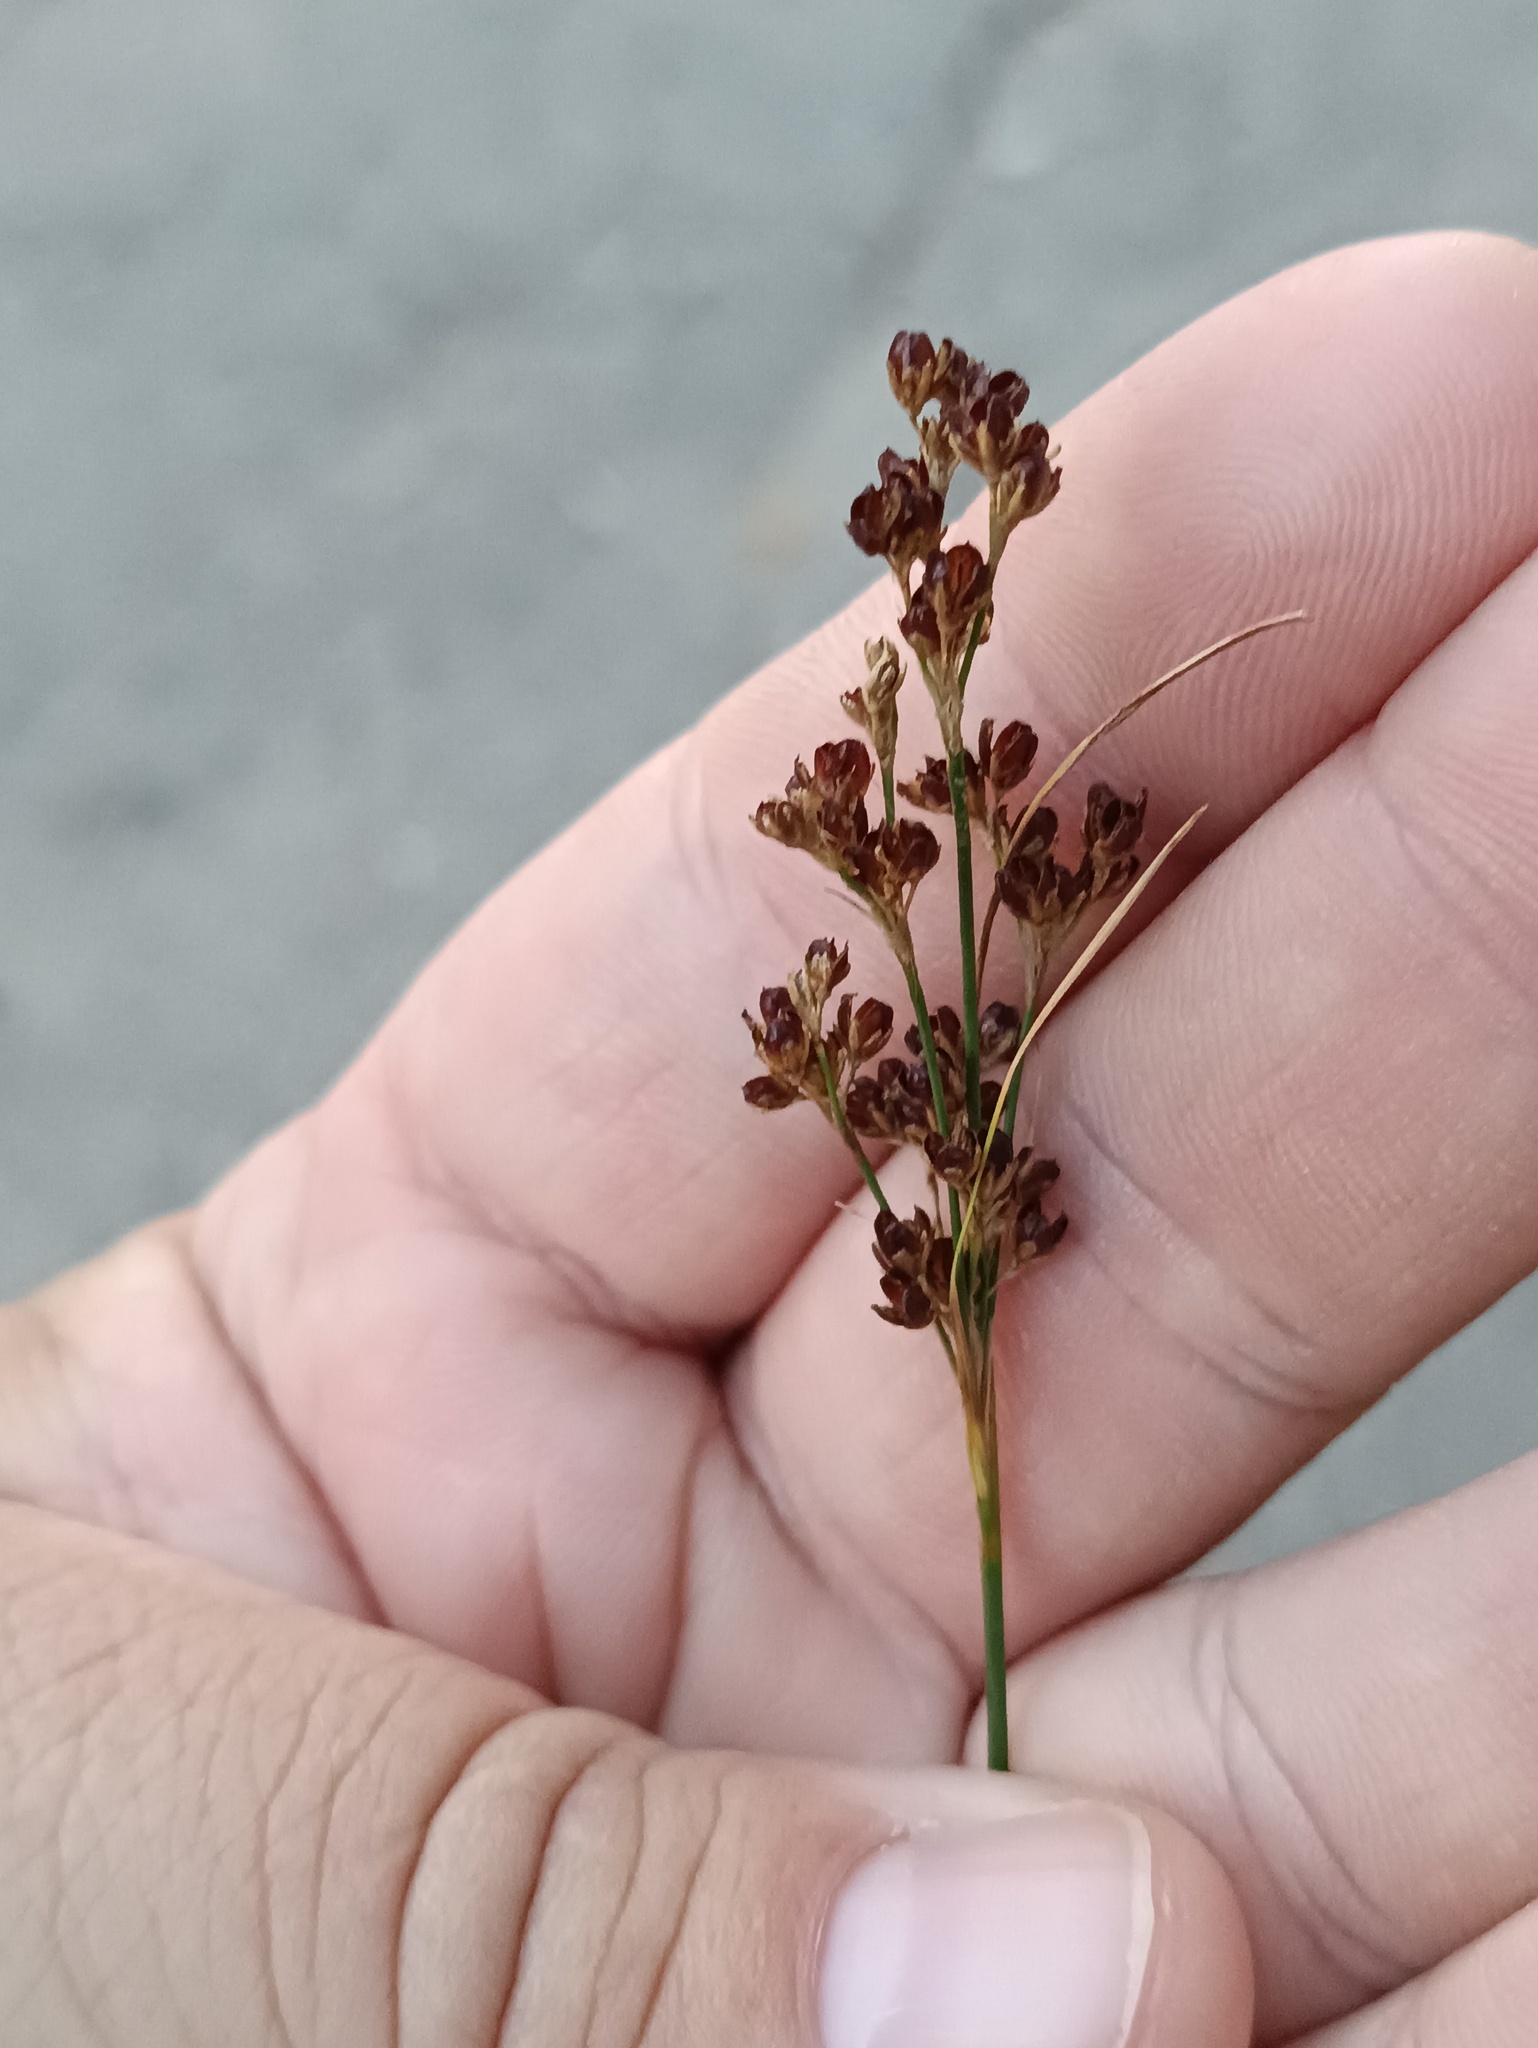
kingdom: Plantae
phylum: Tracheophyta
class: Liliopsida
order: Poales
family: Juncaceae
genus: Juncus
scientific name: Juncus compressus
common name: Round-fruited rush
